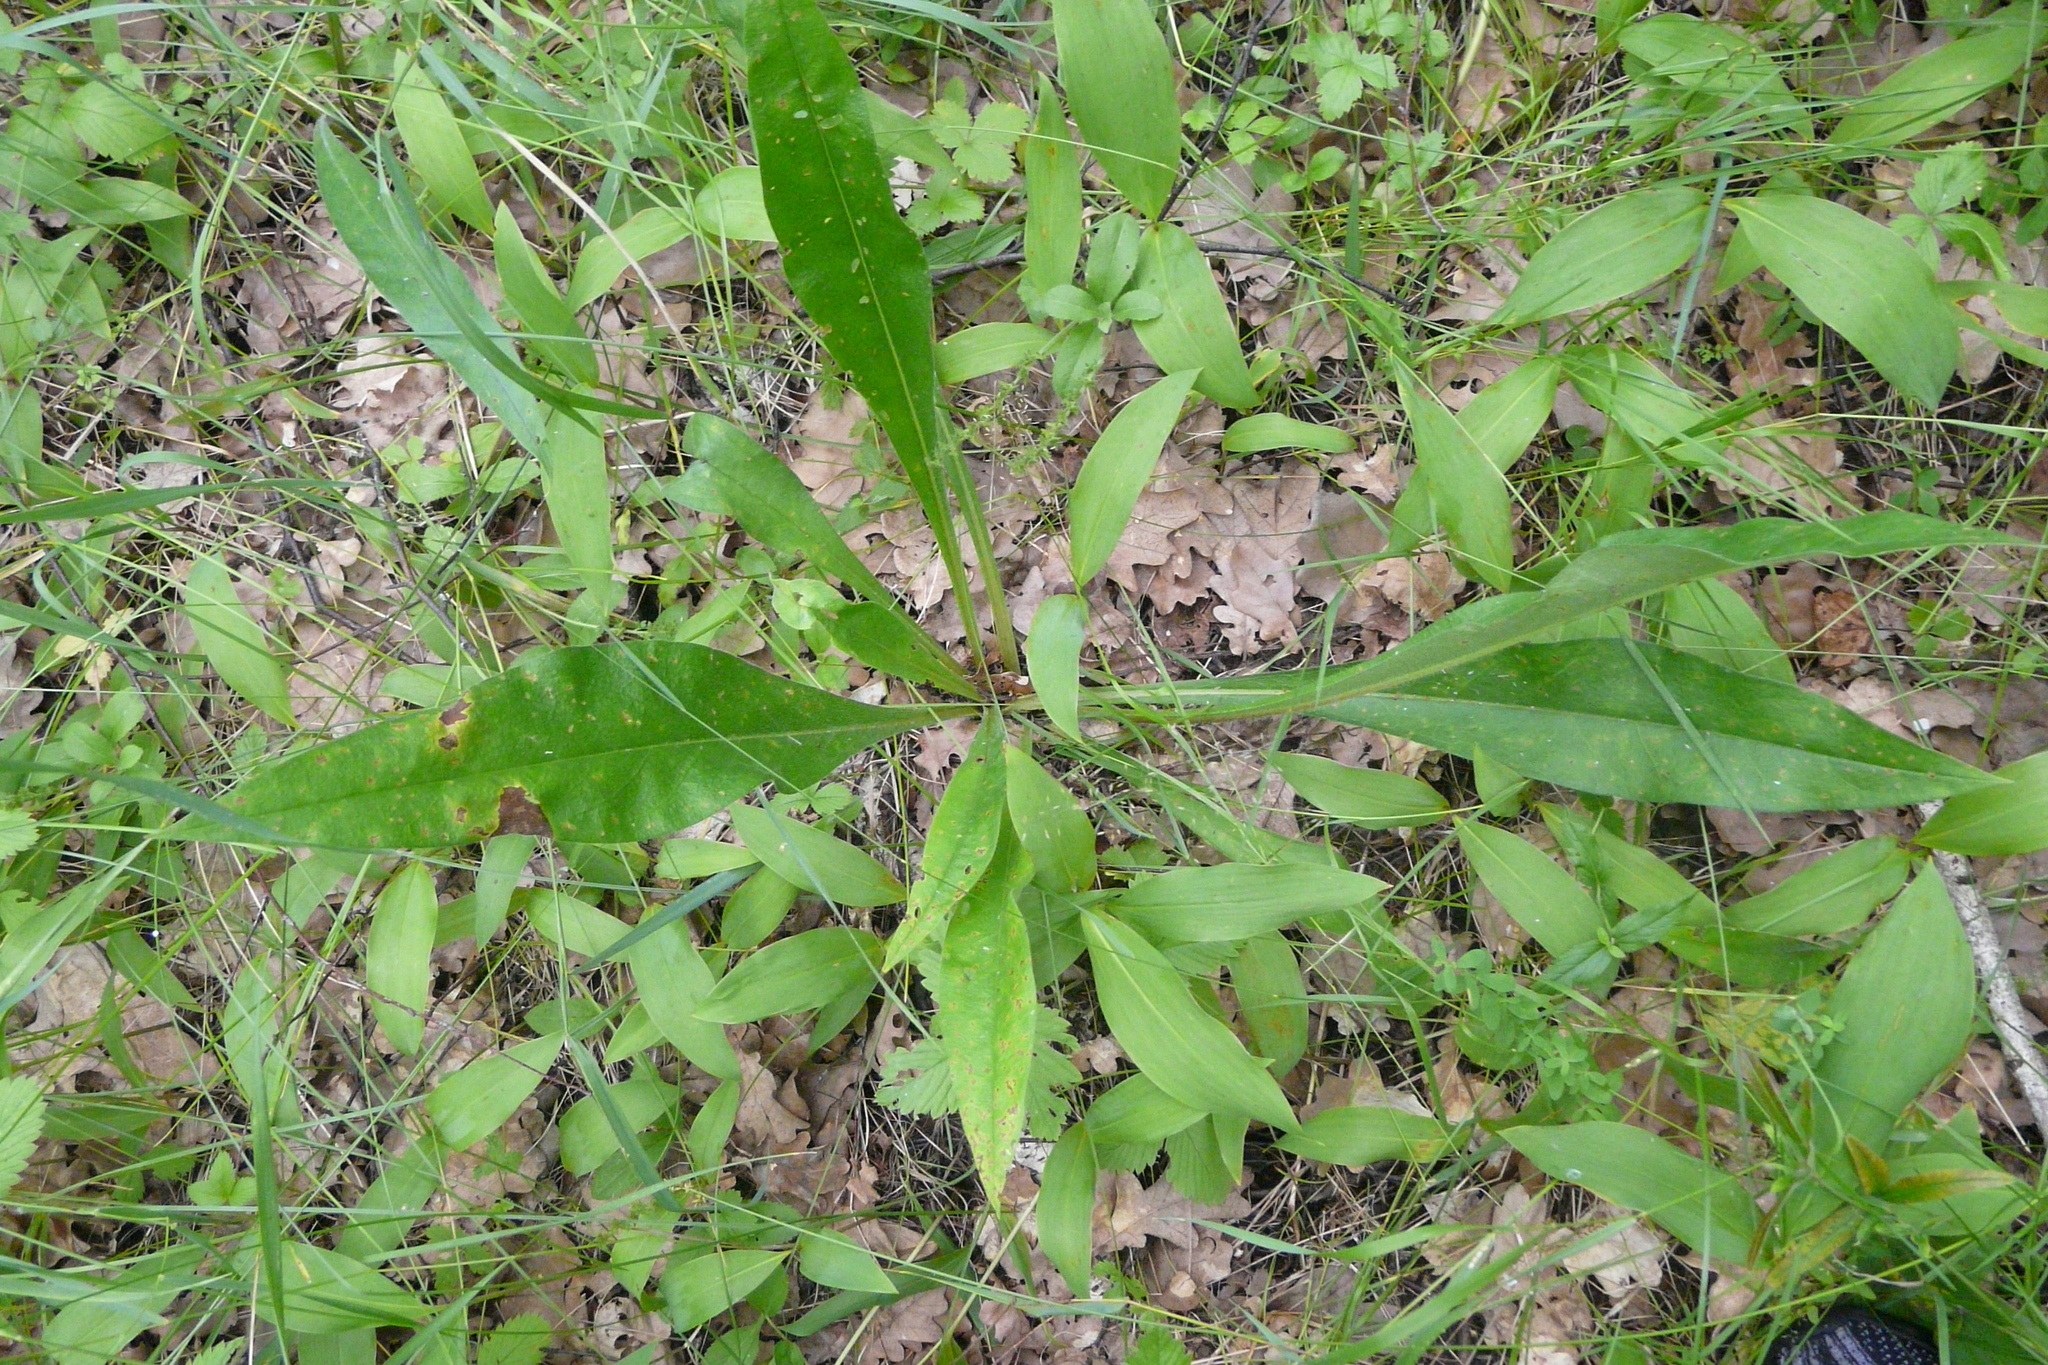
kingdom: Plantae
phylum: Tracheophyta
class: Magnoliopsida
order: Boraginales
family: Boraginaceae
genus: Pulmonaria
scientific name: Pulmonaria angustifolia
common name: Blue cowslip
